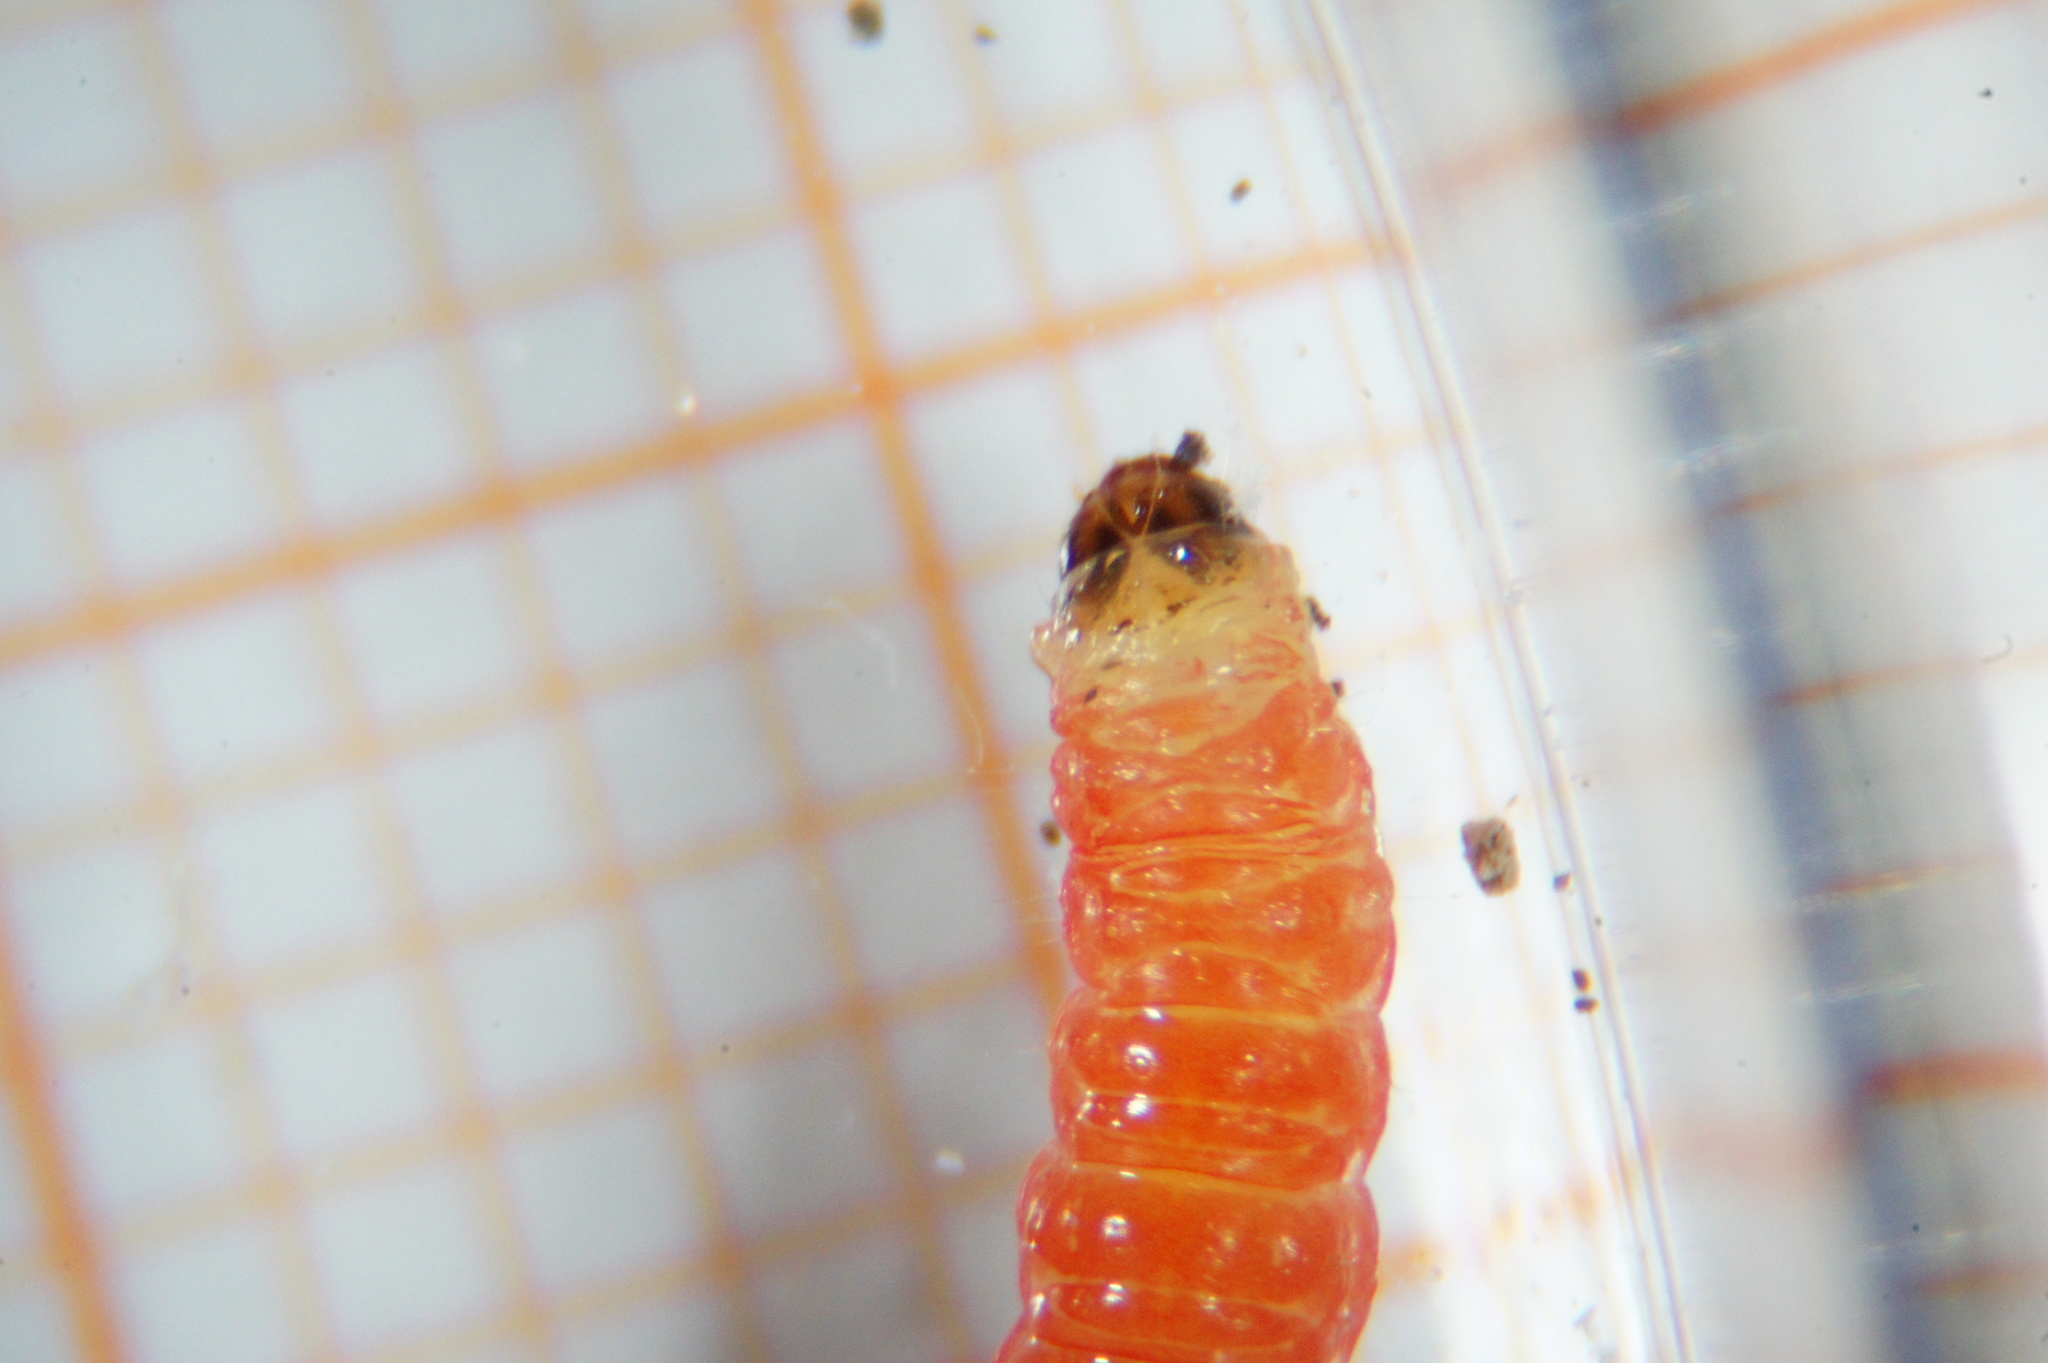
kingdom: Animalia
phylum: Arthropoda
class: Insecta
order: Lepidoptera
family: Noctuidae
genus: Aspila
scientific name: Aspila
